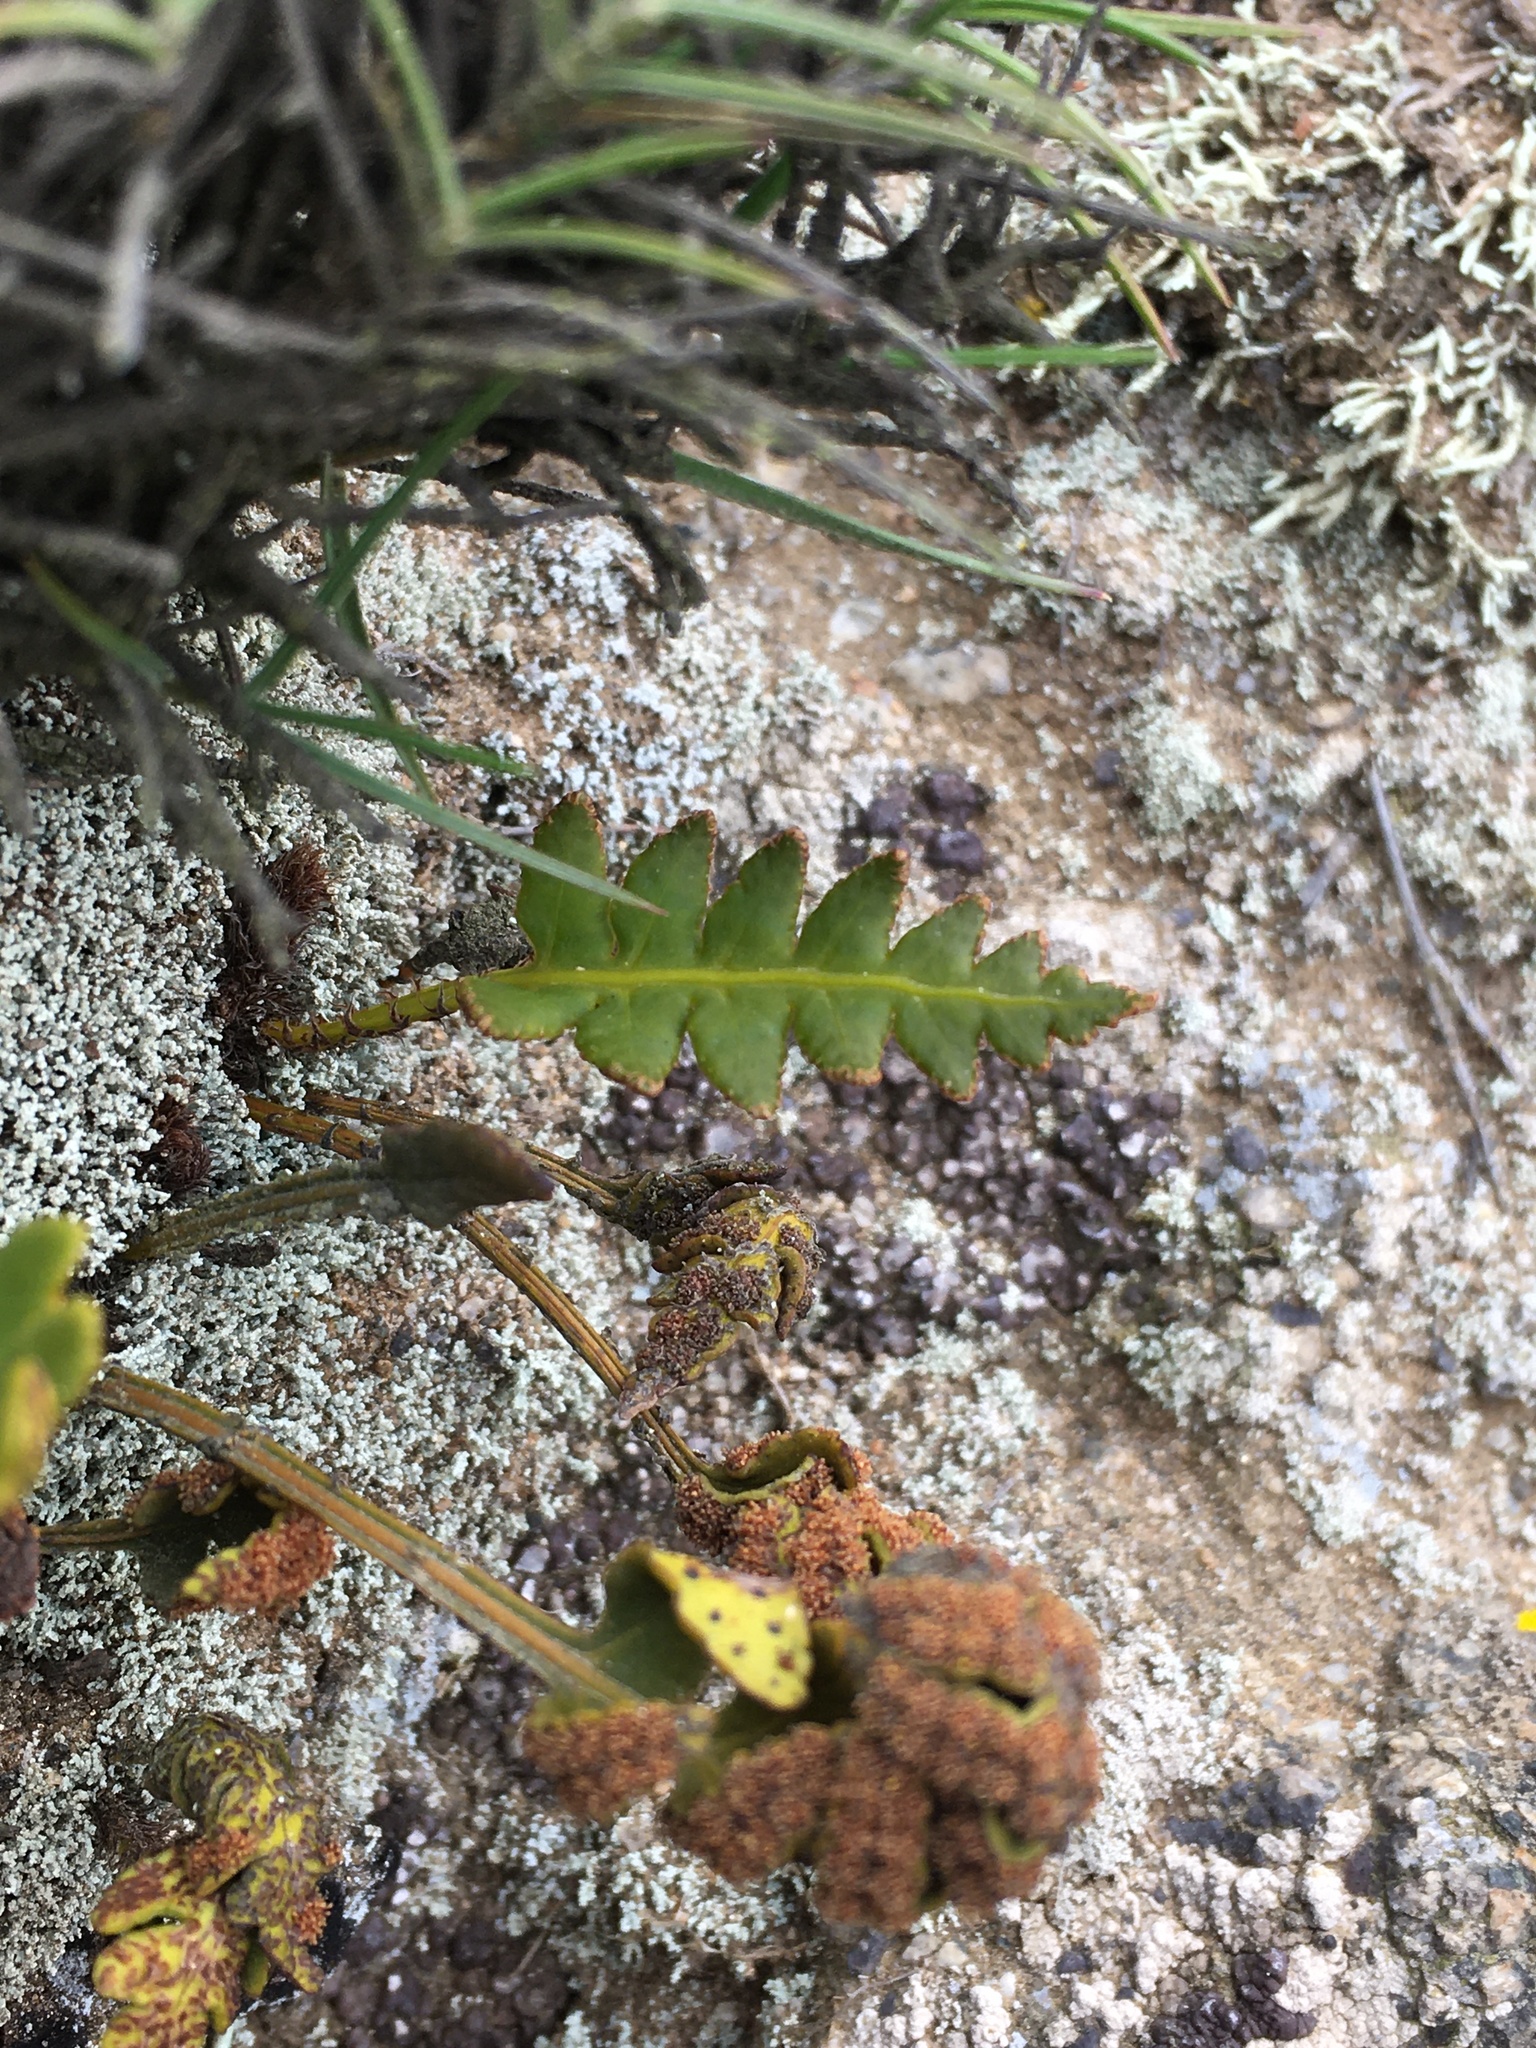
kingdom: Plantae
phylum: Tracheophyta
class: Polypodiopsida
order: Polypodiales
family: Polypodiaceae
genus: Synammia
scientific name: Synammia espinosae
